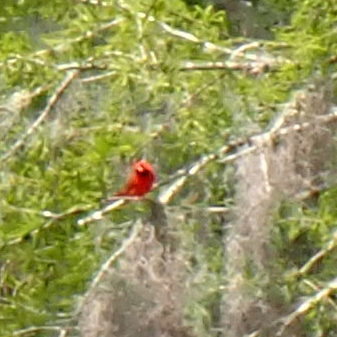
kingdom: Animalia
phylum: Chordata
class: Aves
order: Passeriformes
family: Cardinalidae
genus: Cardinalis
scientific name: Cardinalis cardinalis
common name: Northern cardinal
